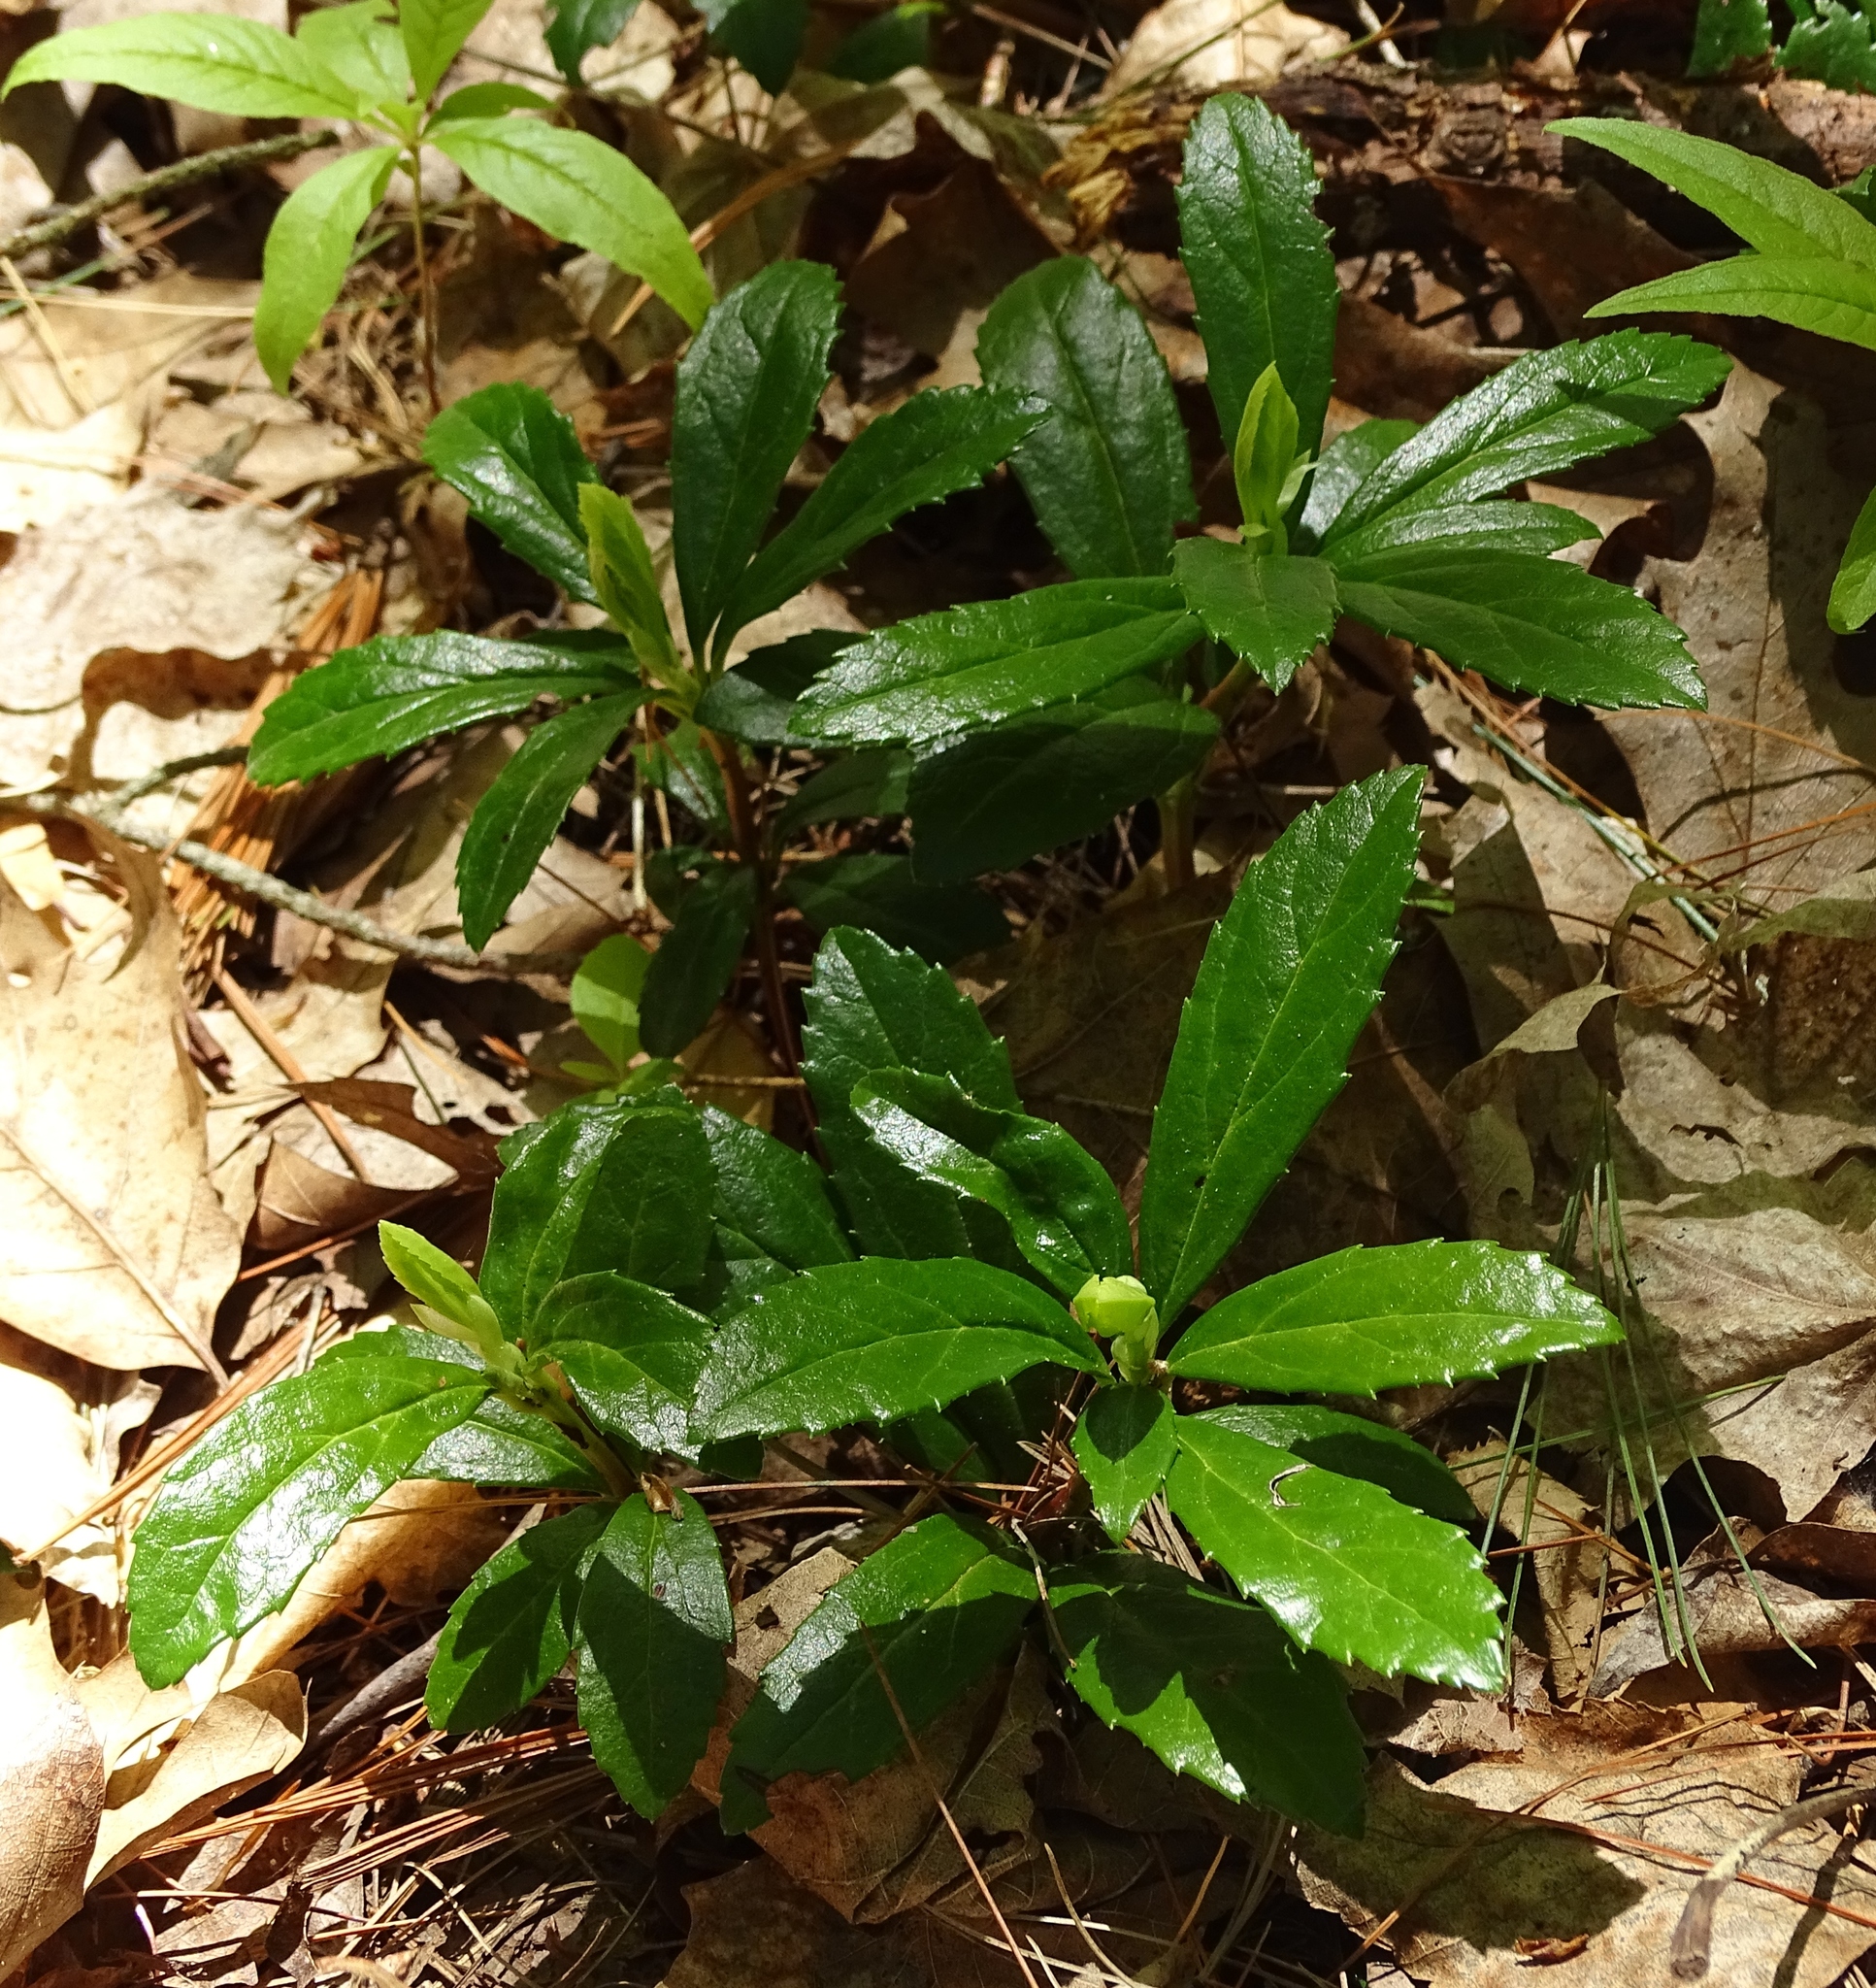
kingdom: Plantae
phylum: Tracheophyta
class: Magnoliopsida
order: Ericales
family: Ericaceae
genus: Chimaphila
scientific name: Chimaphila umbellata
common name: Pipsissewa
